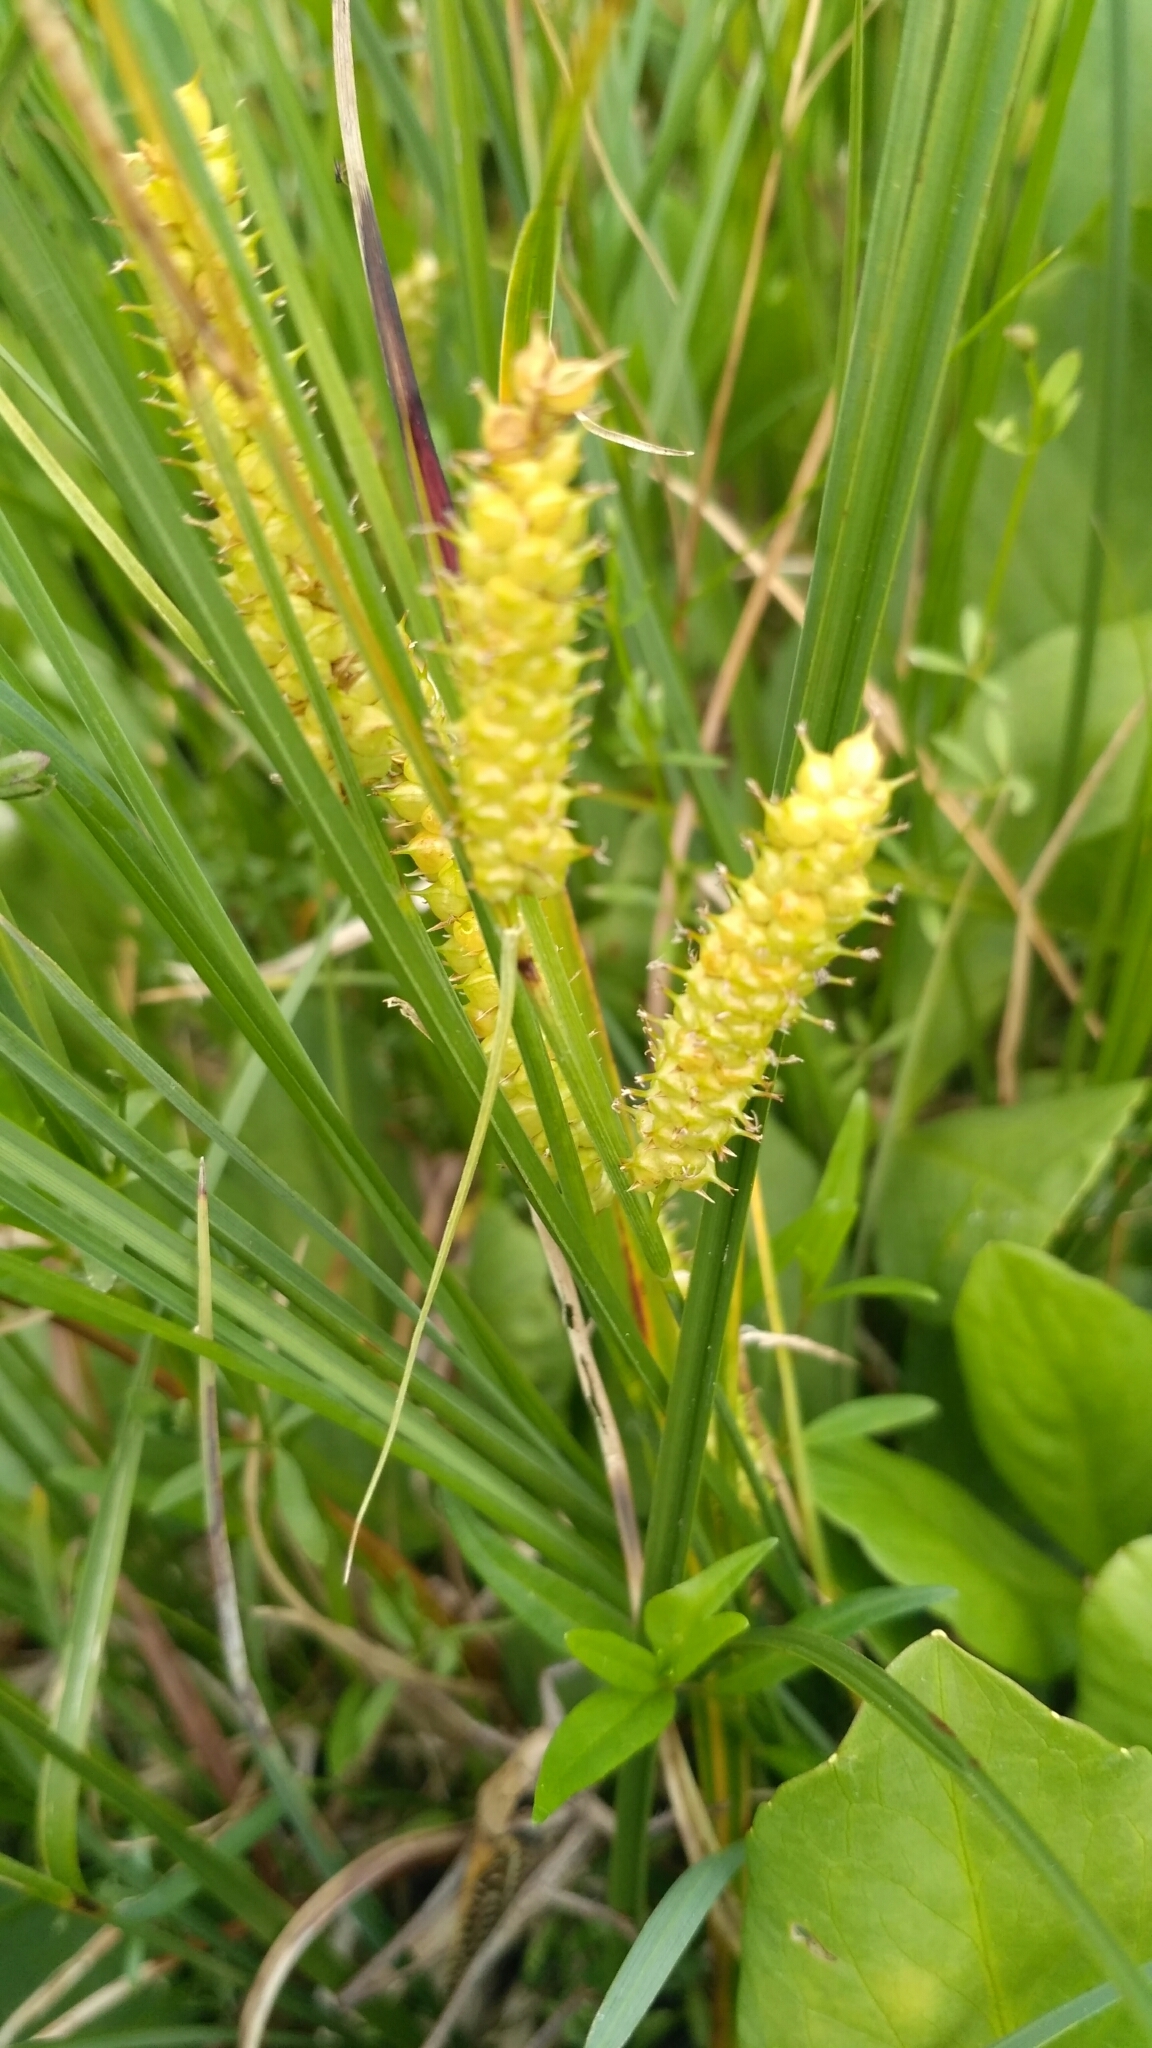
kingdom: Plantae
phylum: Tracheophyta
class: Liliopsida
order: Poales
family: Cyperaceae
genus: Carex
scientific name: Carex rostrata
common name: Bottle sedge
